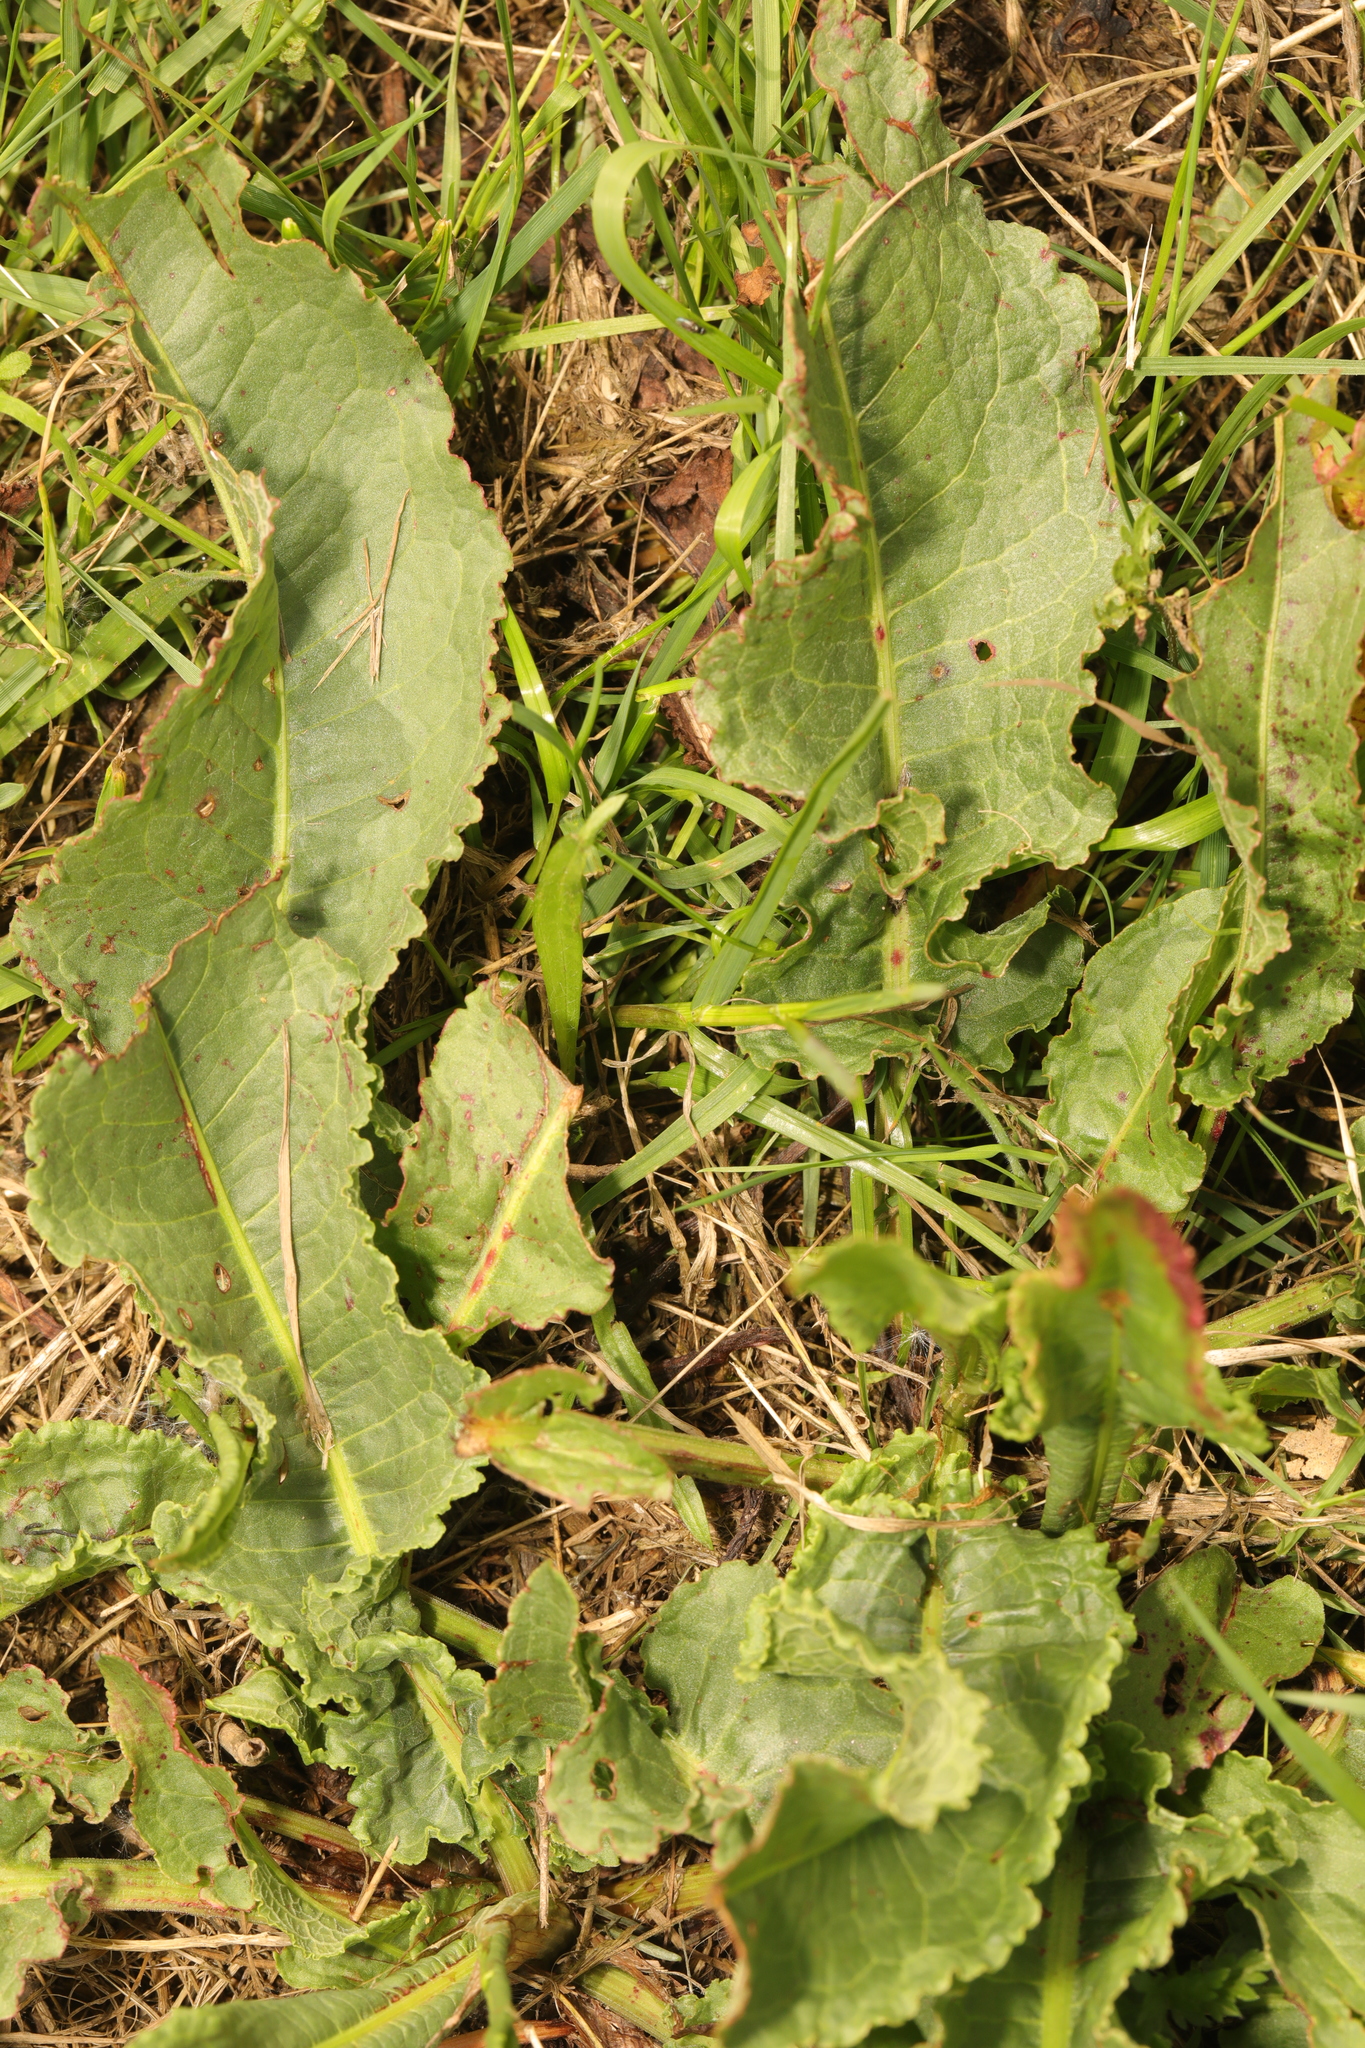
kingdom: Plantae
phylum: Tracheophyta
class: Magnoliopsida
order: Caryophyllales
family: Polygonaceae
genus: Rumex
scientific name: Rumex crispus
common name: Curled dock
